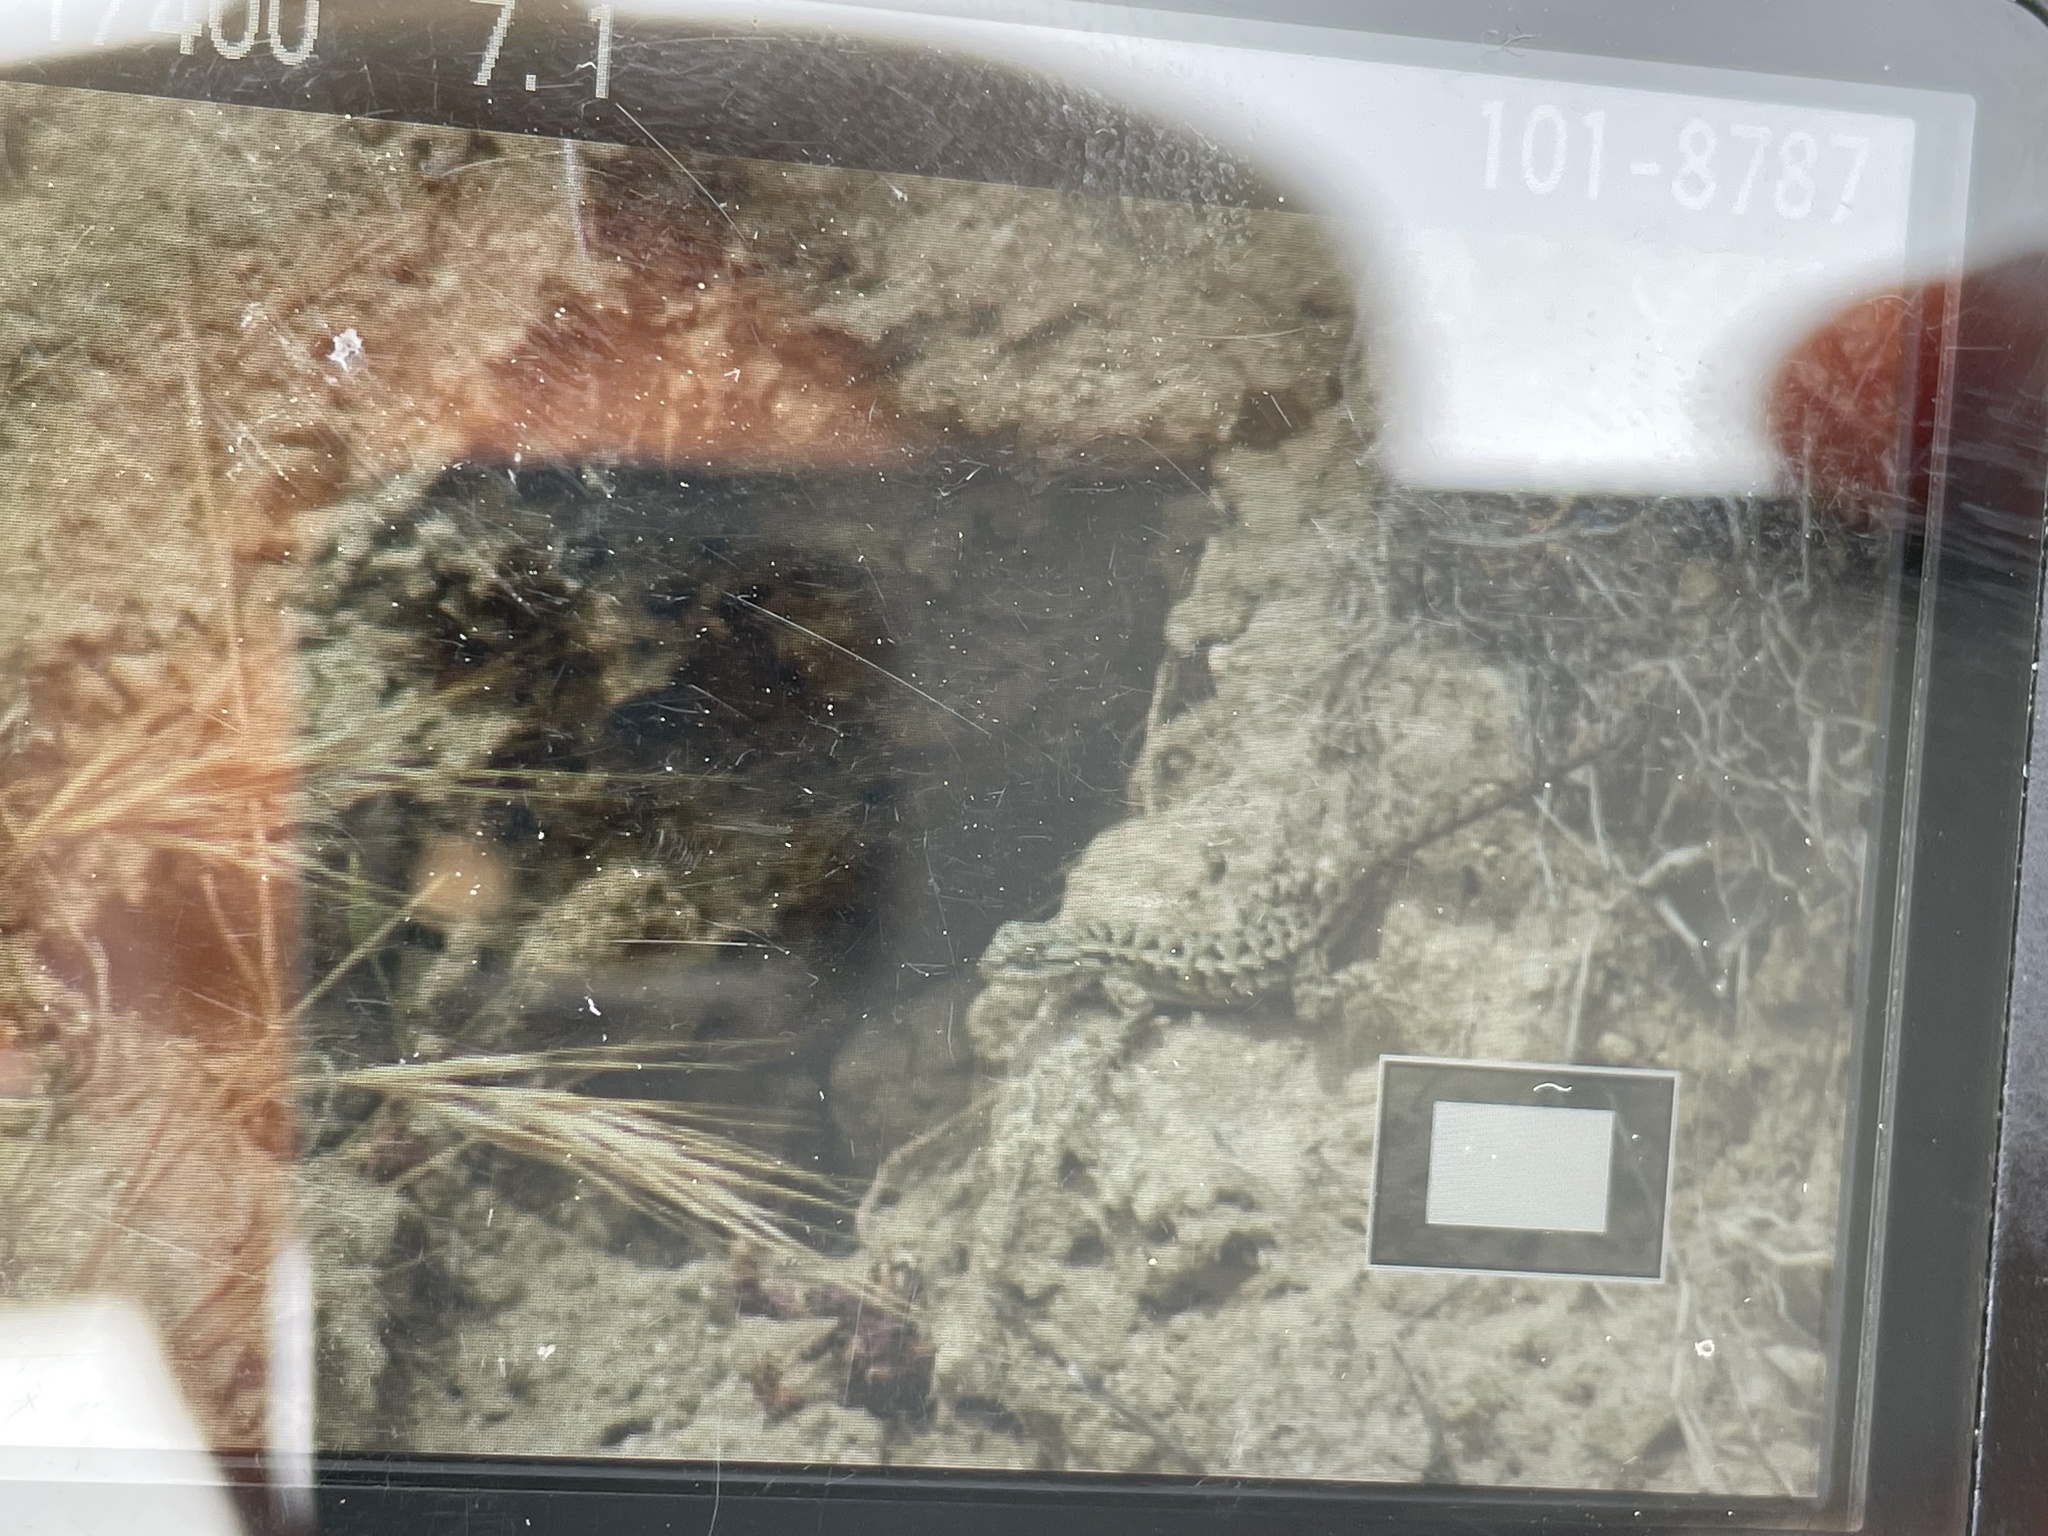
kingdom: Animalia
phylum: Chordata
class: Squamata
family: Phrynosomatidae
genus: Sceloporus
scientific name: Sceloporus occidentalis
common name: Western fence lizard
